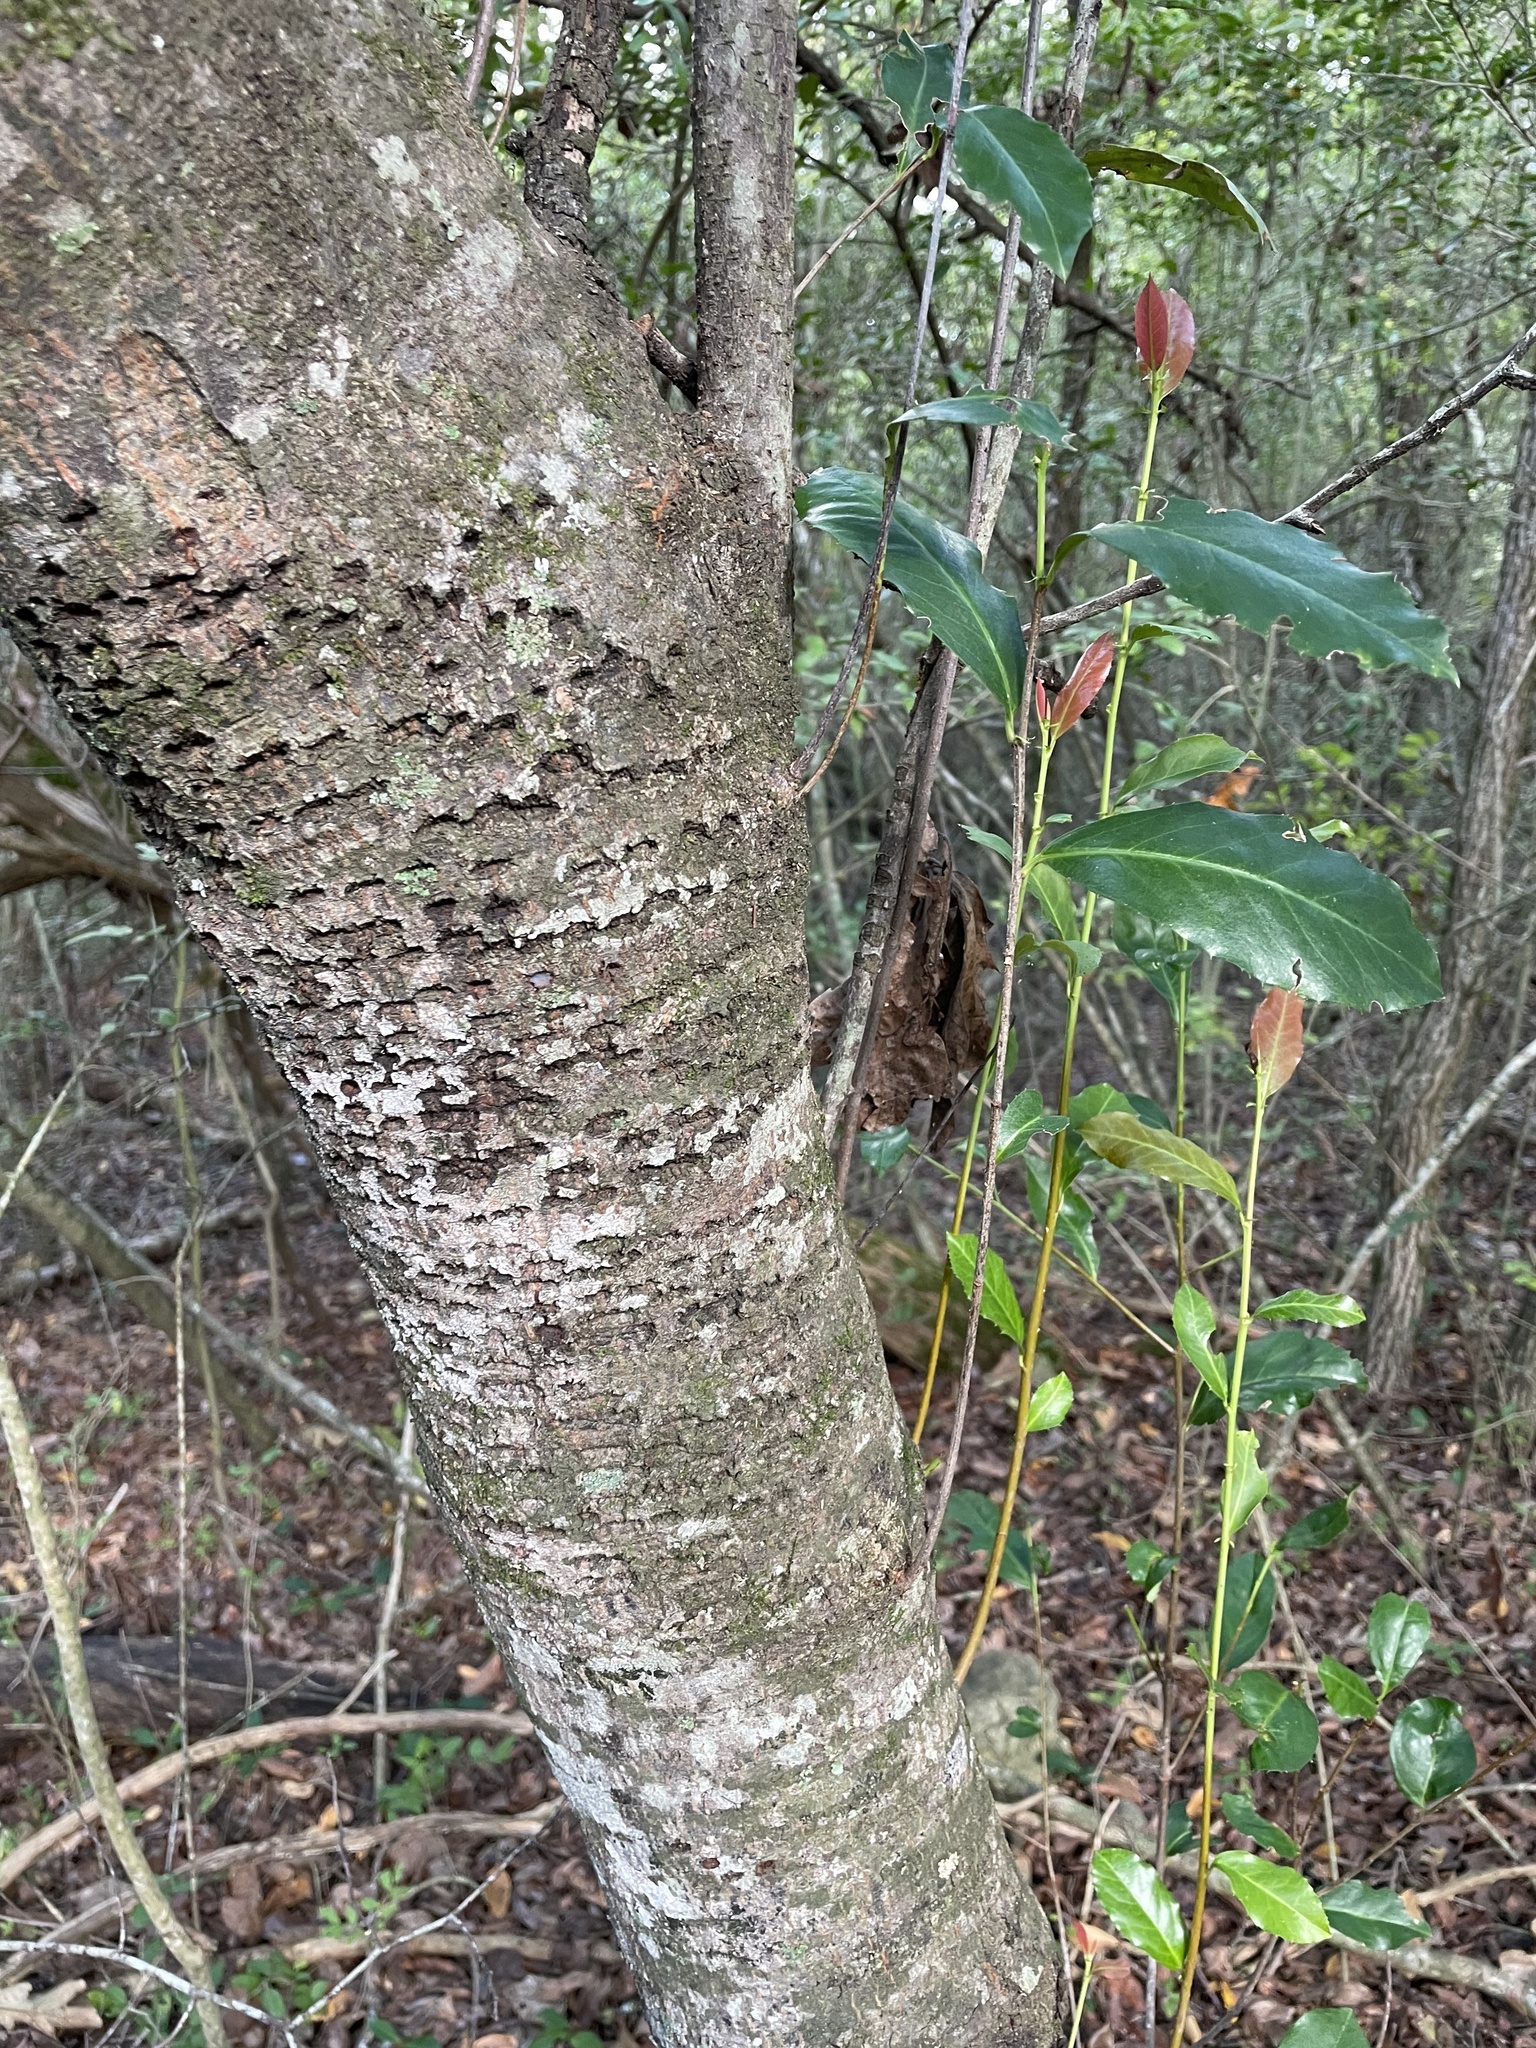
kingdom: Plantae
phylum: Tracheophyta
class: Magnoliopsida
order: Rosales
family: Rosaceae
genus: Prunus
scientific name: Prunus caroliniana
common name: Carolina laurel cherry
